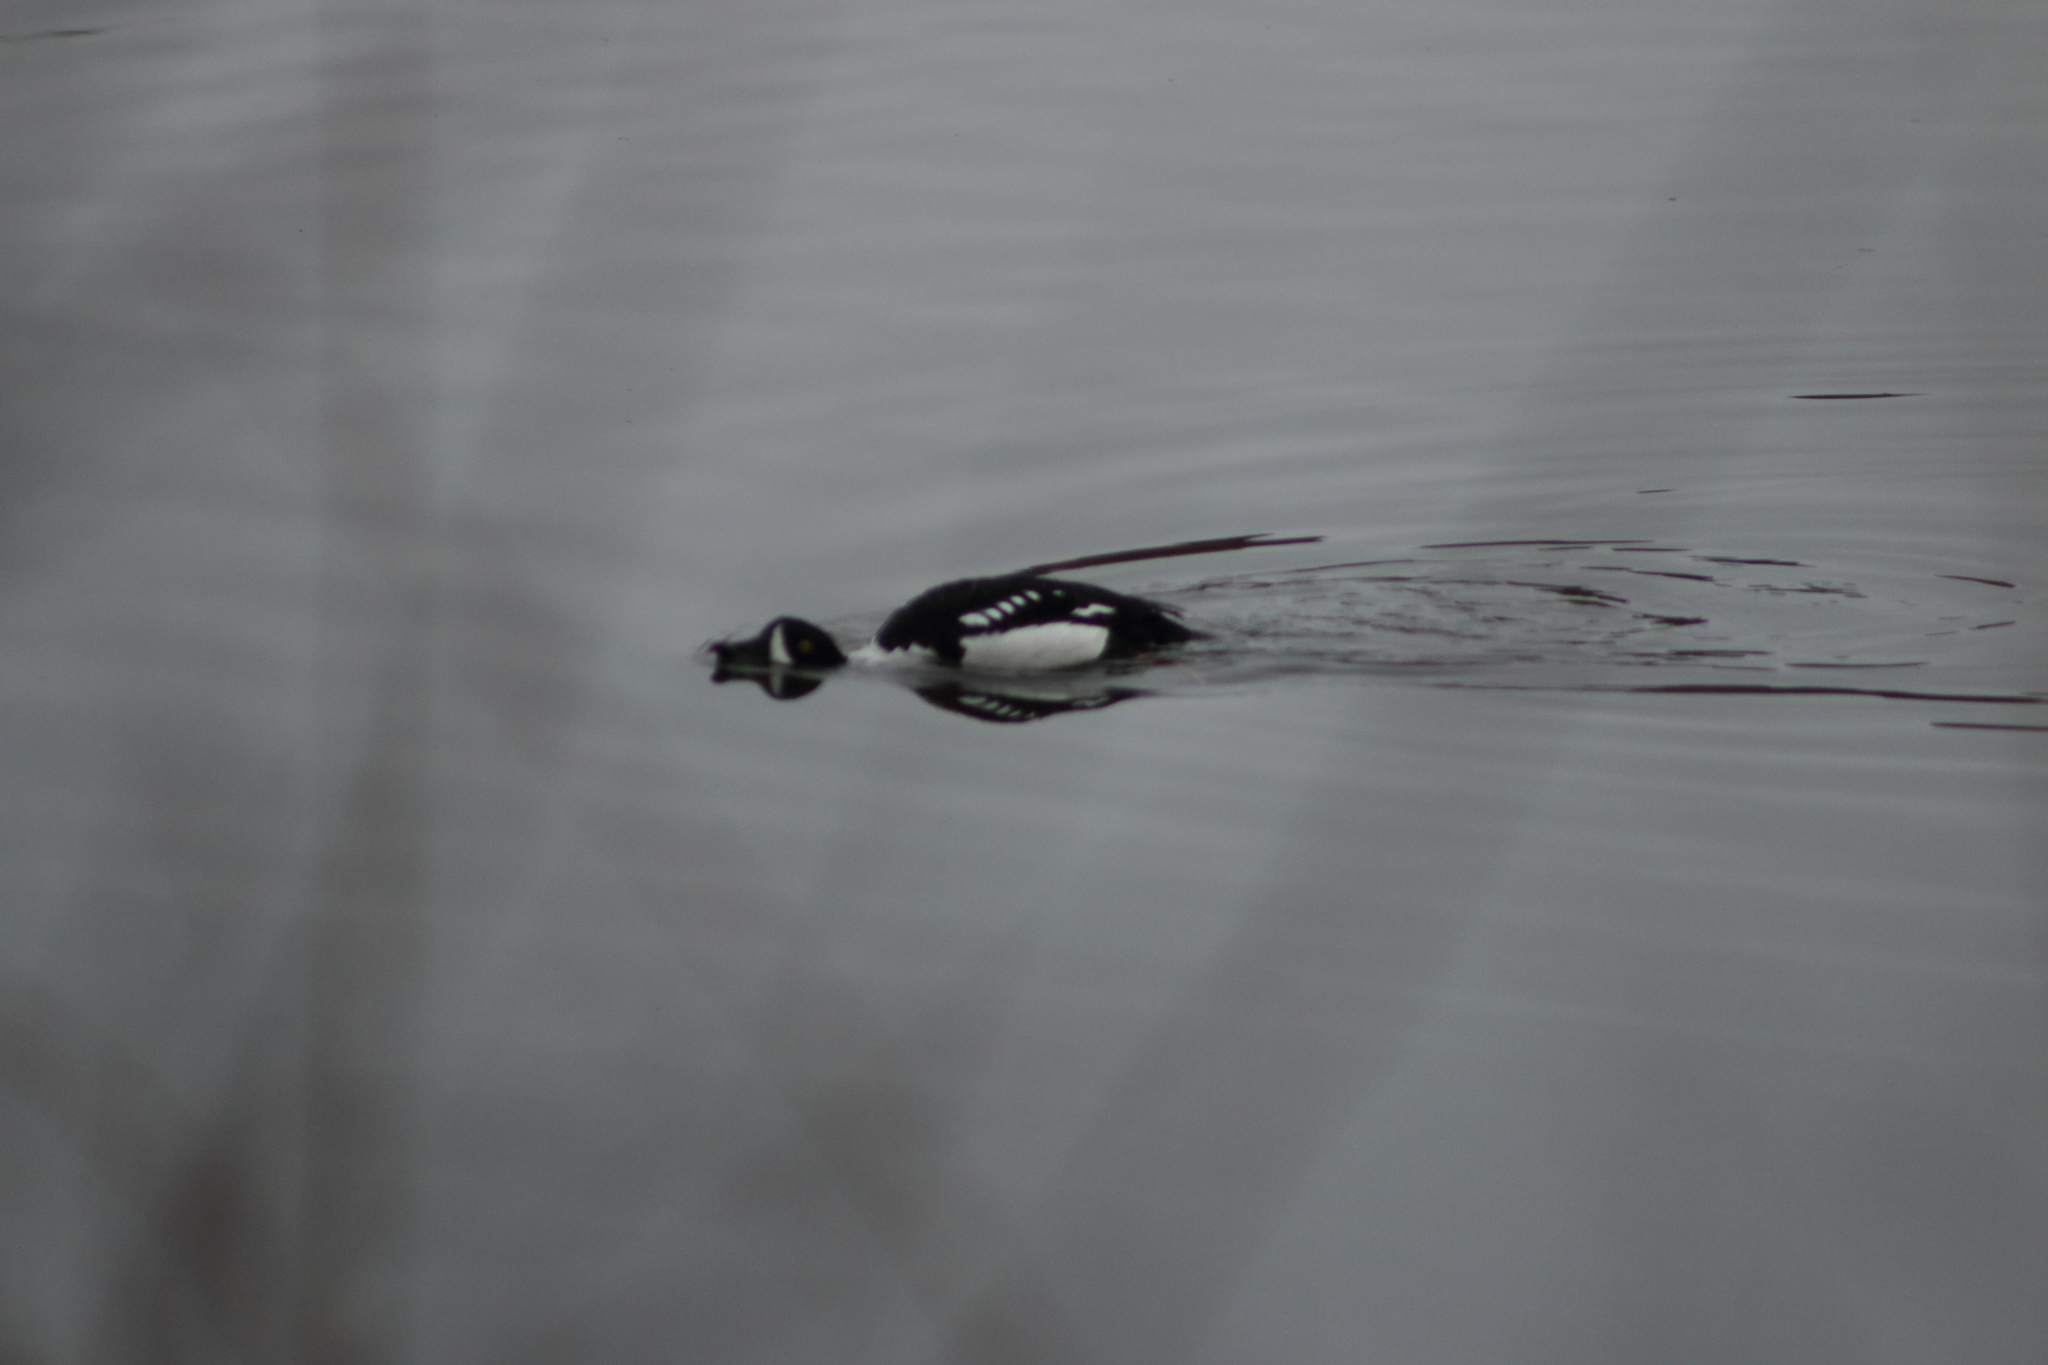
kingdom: Animalia
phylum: Chordata
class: Aves
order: Anseriformes
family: Anatidae
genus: Bucephala
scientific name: Bucephala islandica
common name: Barrow's goldeneye
